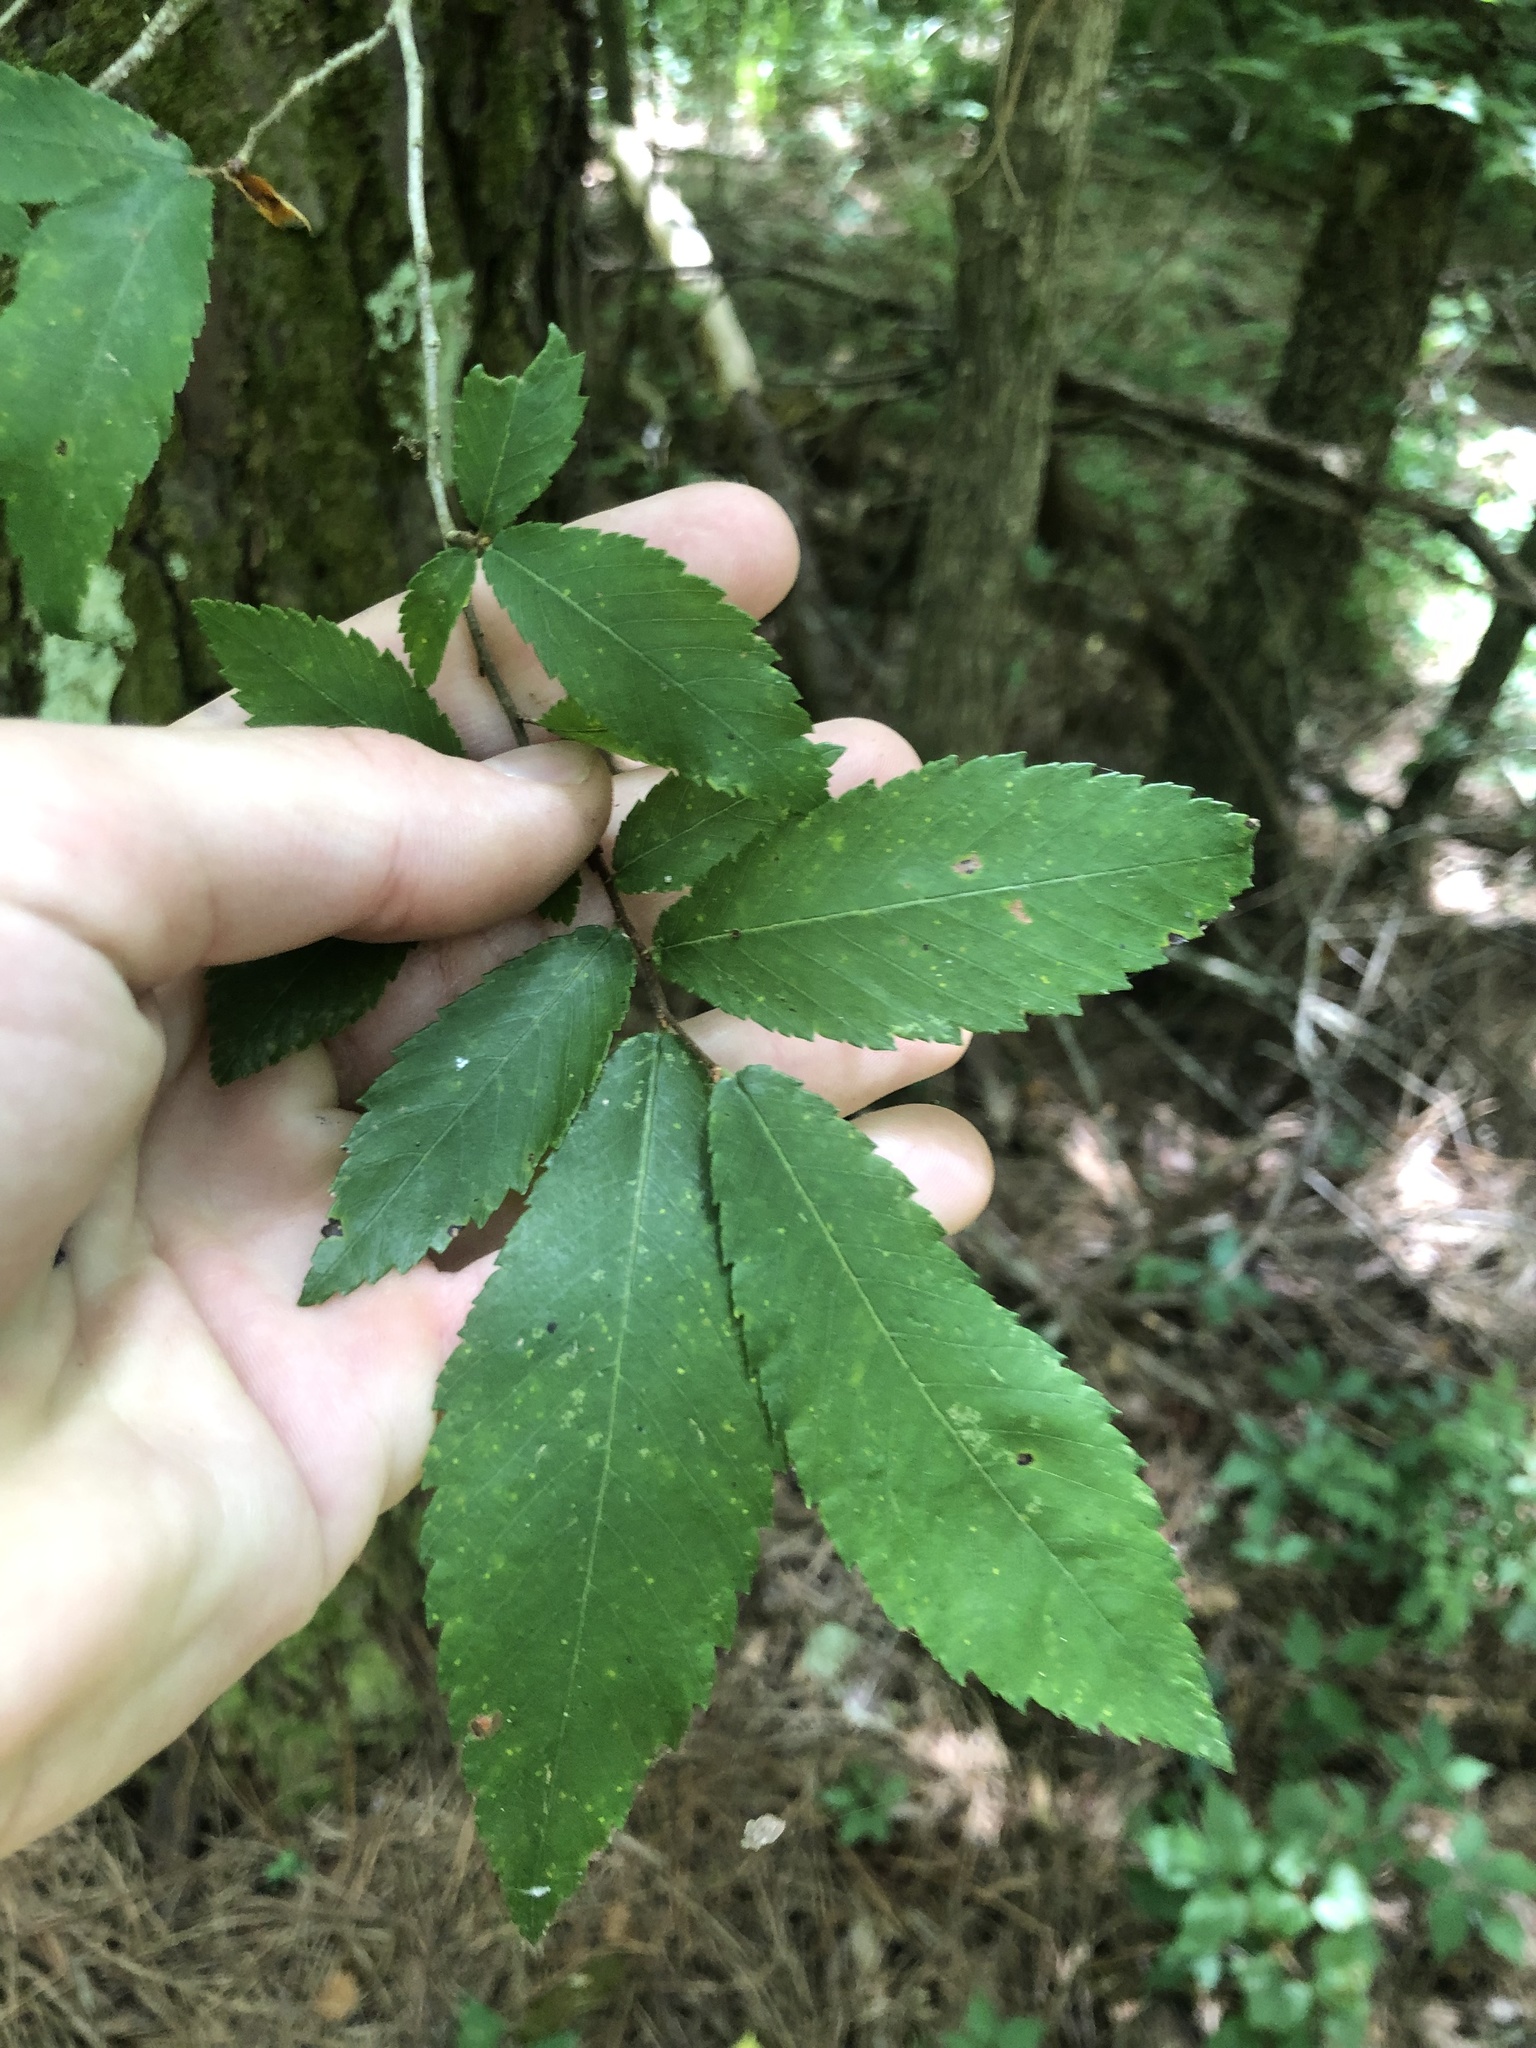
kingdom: Plantae
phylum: Tracheophyta
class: Magnoliopsida
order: Rosales
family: Ulmaceae
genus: Ulmus
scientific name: Ulmus alata
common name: Winged elm
